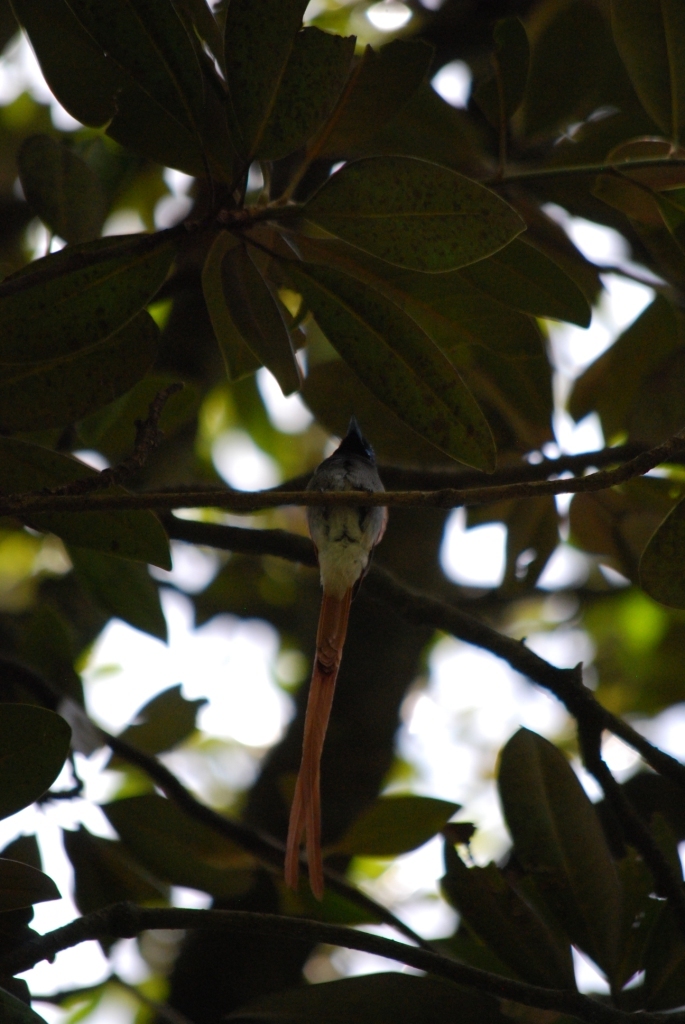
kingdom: Animalia
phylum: Chordata
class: Aves
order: Passeriformes
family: Monarchidae
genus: Terpsiphone
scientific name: Terpsiphone viridis
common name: African paradise flycatcher
